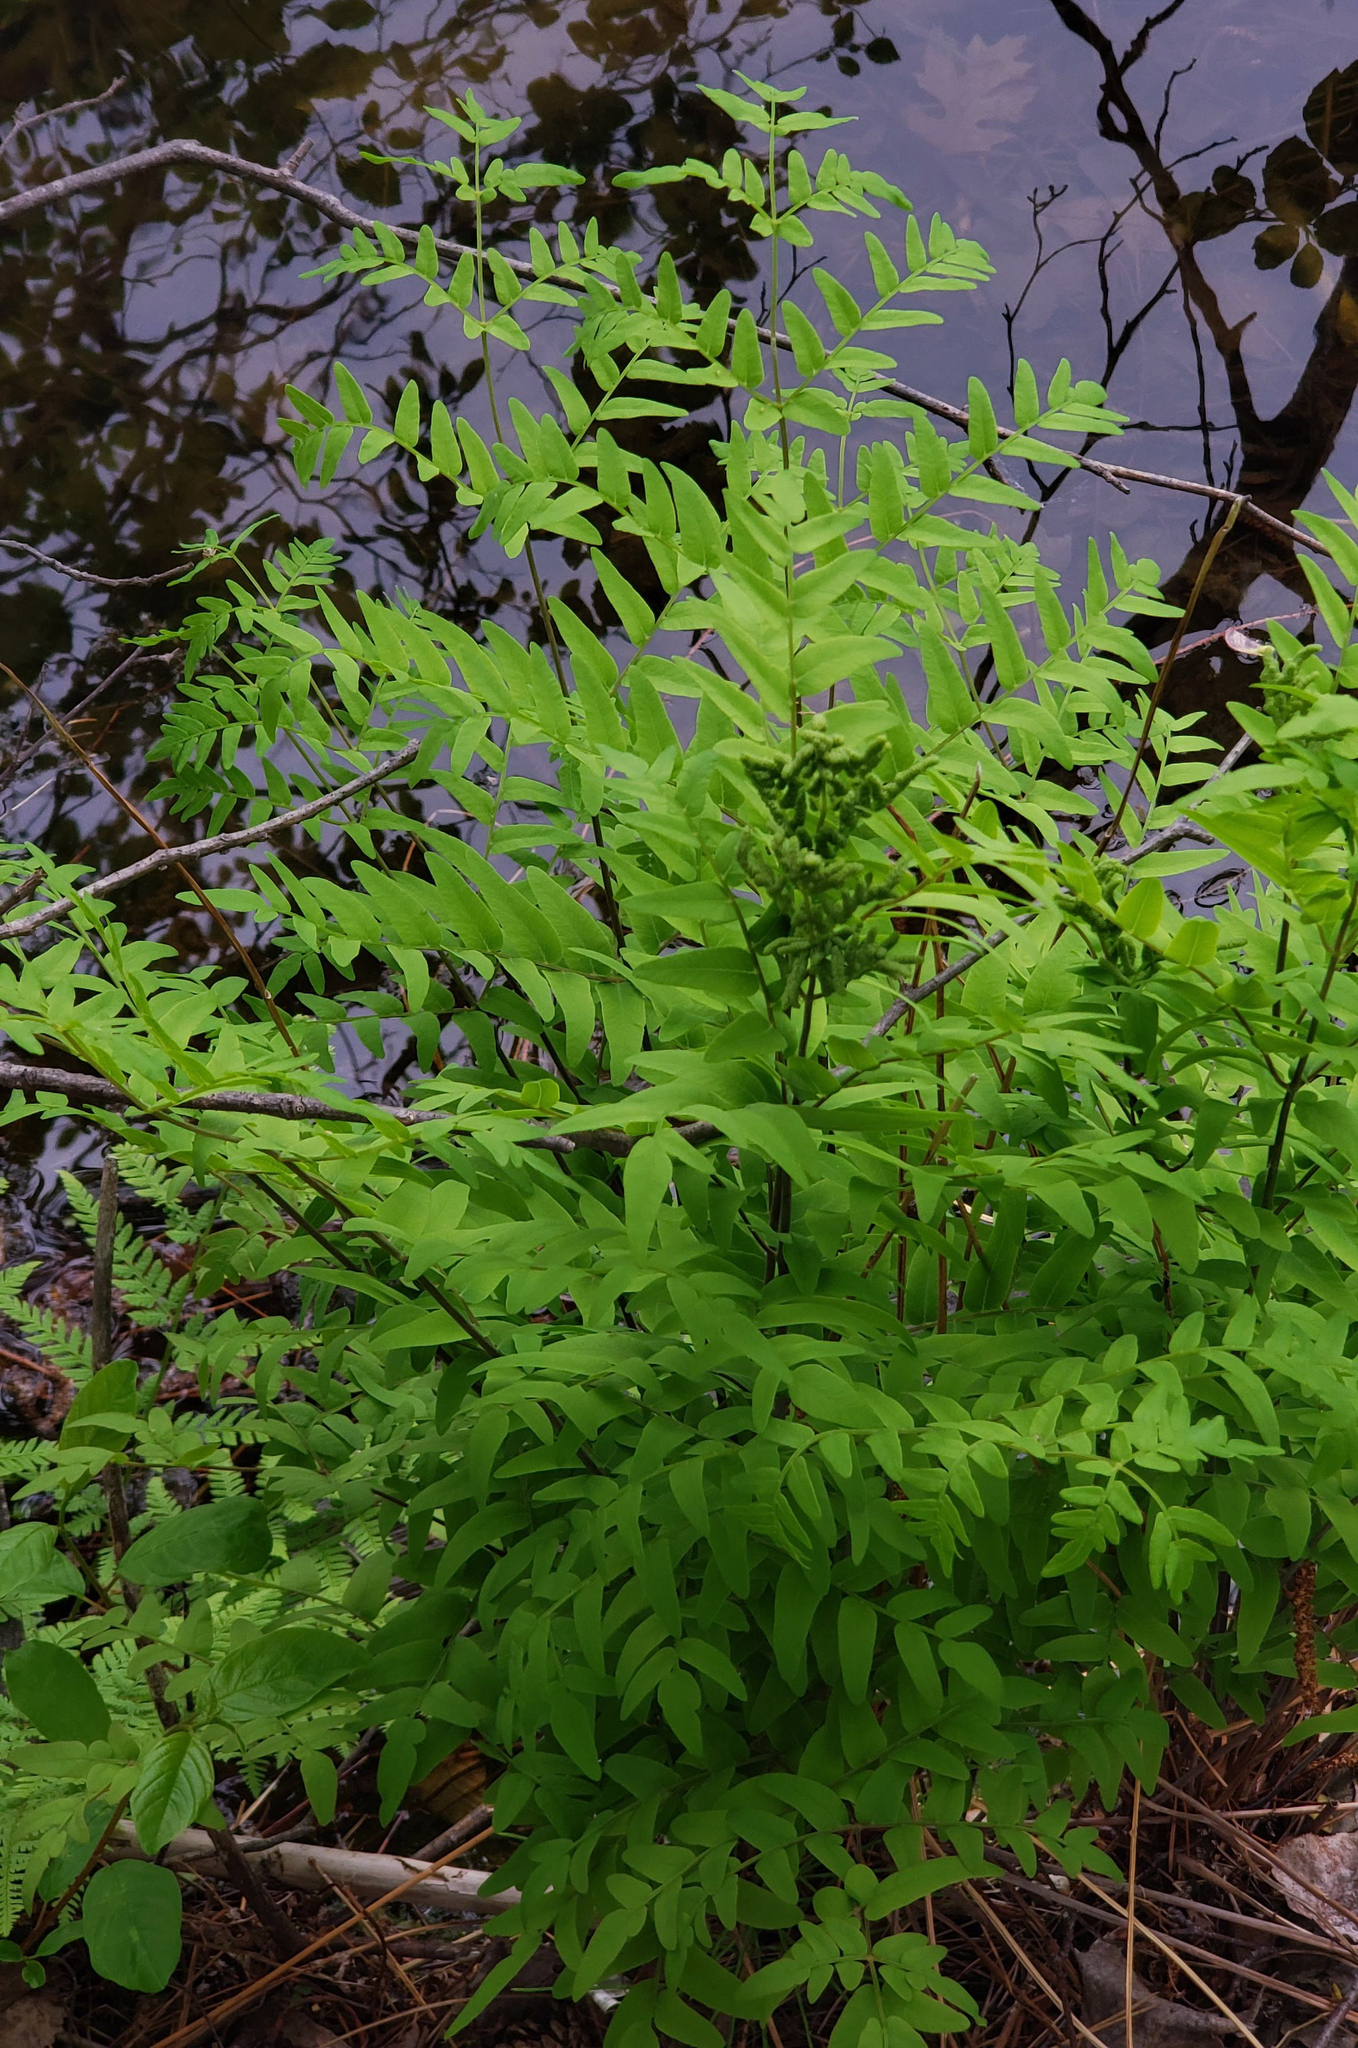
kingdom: Plantae
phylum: Tracheophyta
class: Polypodiopsida
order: Osmundales
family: Osmundaceae
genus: Osmunda
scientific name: Osmunda spectabilis
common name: American royal fern
